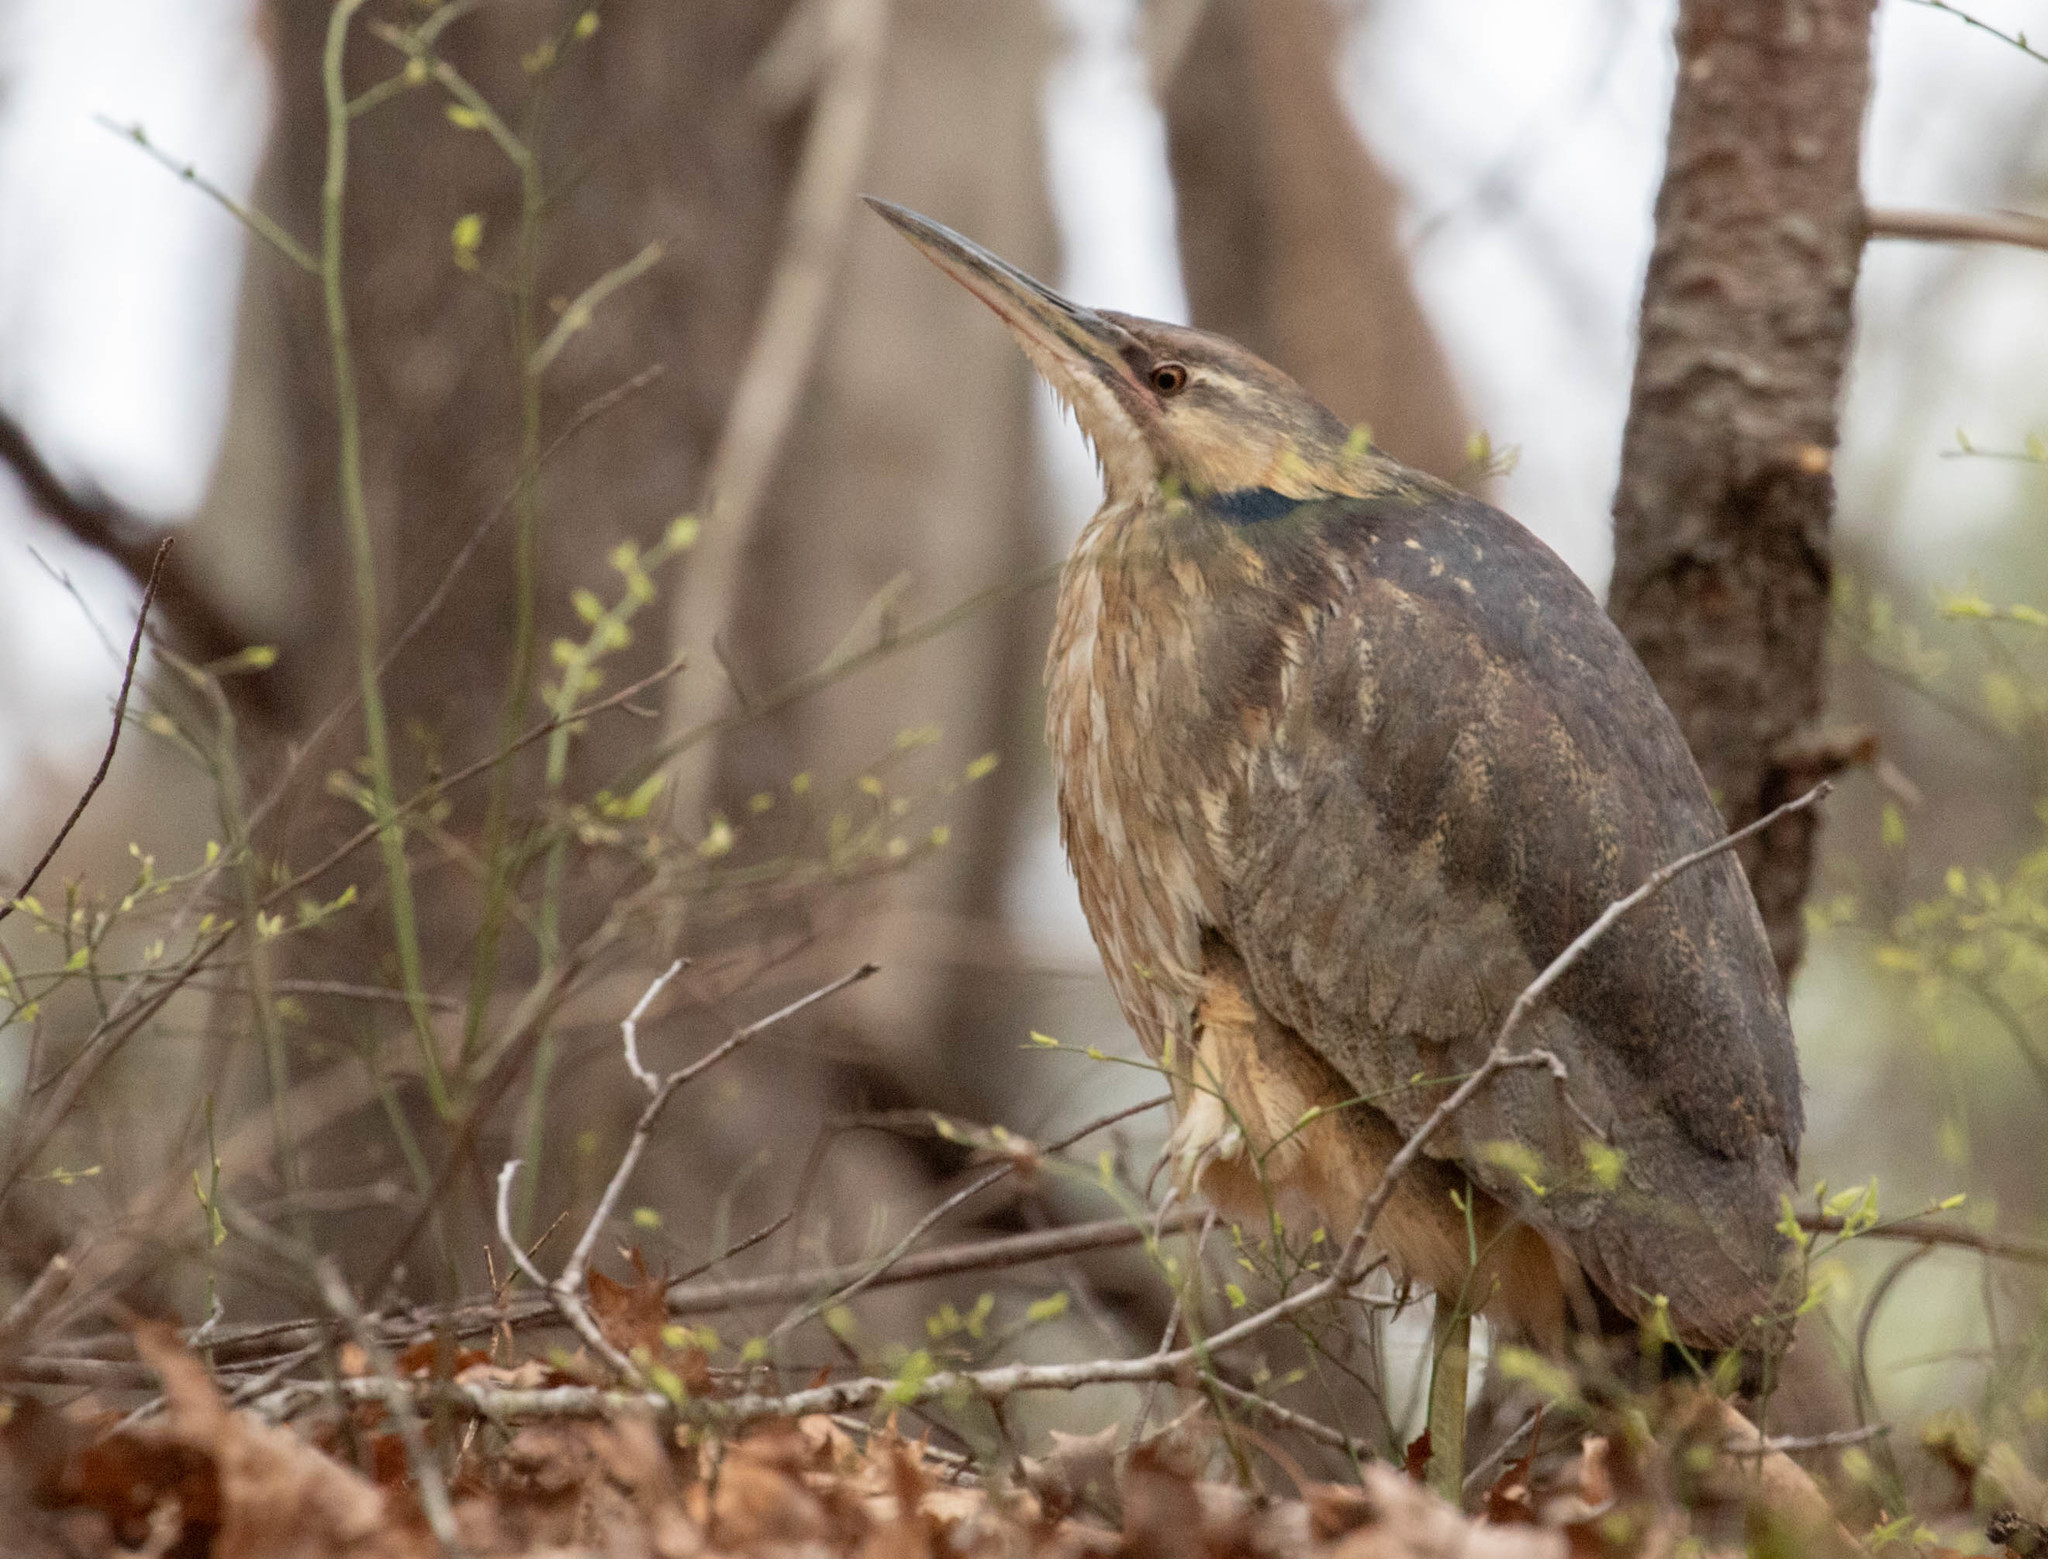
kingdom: Animalia
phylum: Chordata
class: Aves
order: Pelecaniformes
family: Ardeidae
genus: Botaurus
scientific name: Botaurus lentiginosus
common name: American bittern
